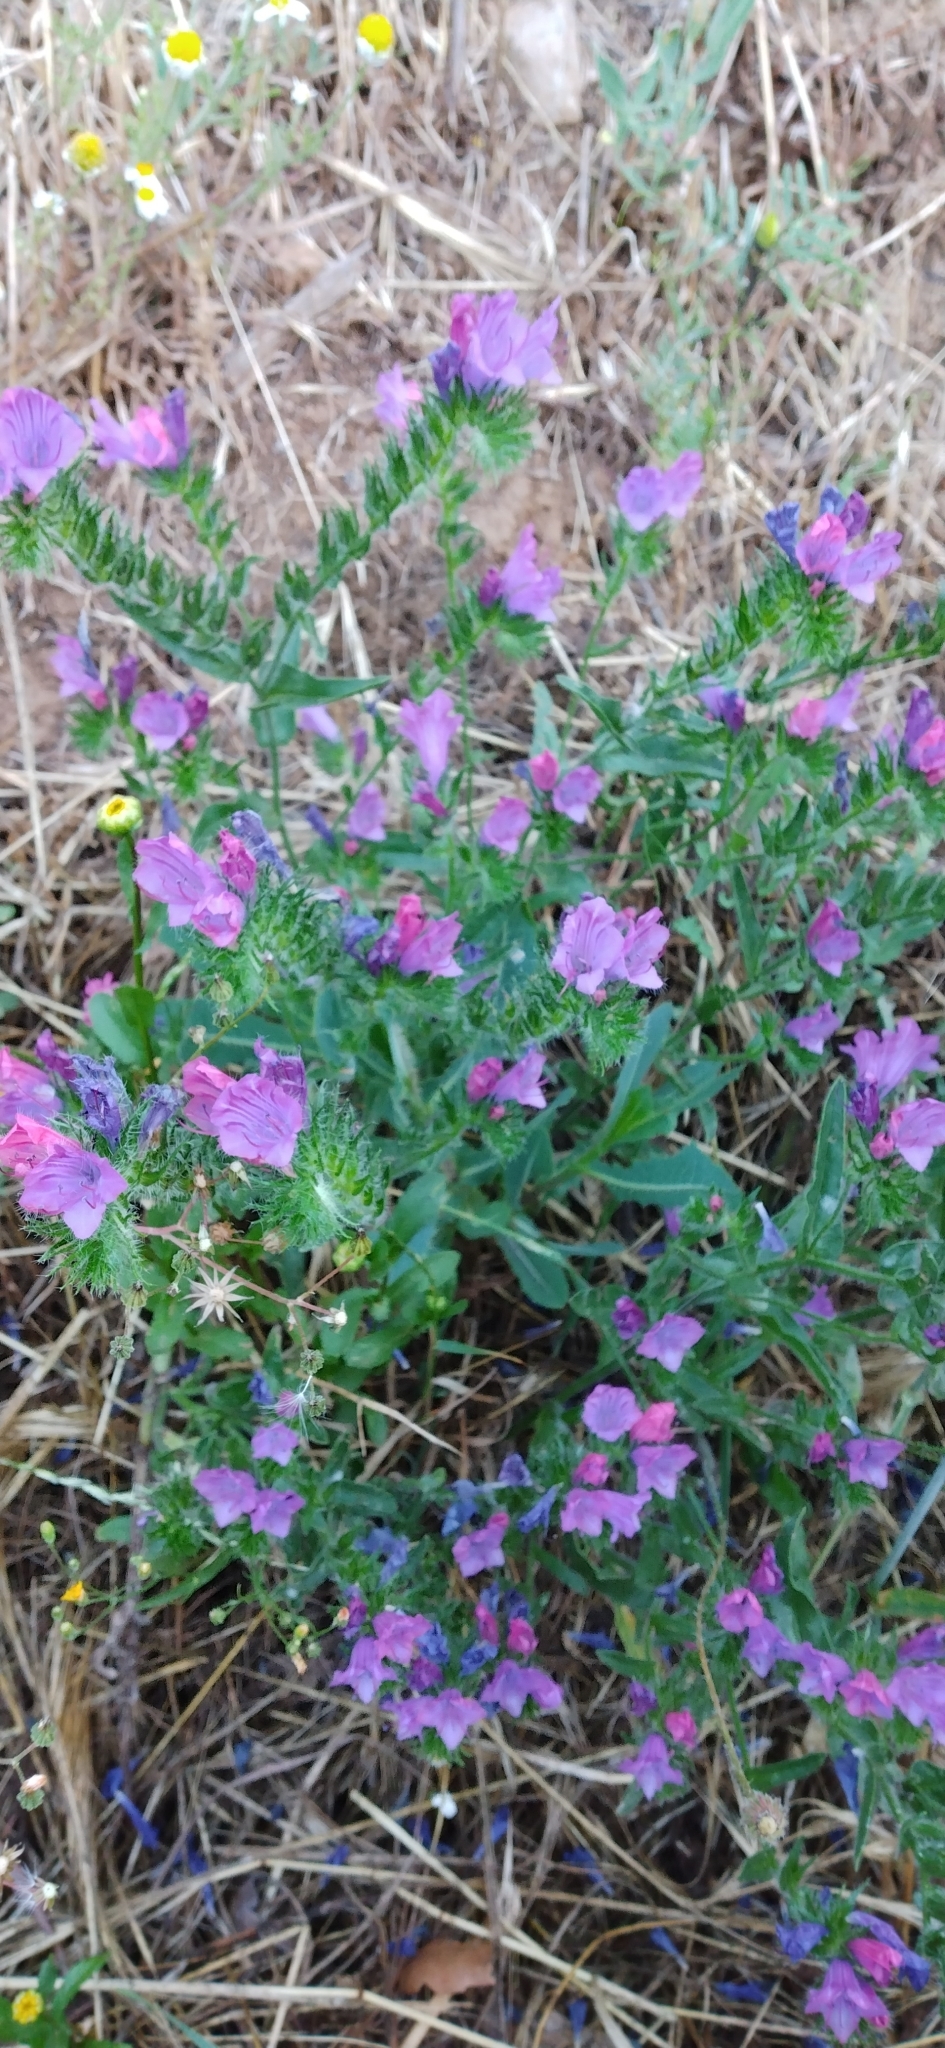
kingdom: Plantae
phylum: Tracheophyta
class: Magnoliopsida
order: Boraginales
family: Boraginaceae
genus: Echium
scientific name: Echium plantagineum
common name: Purple viper's-bugloss
